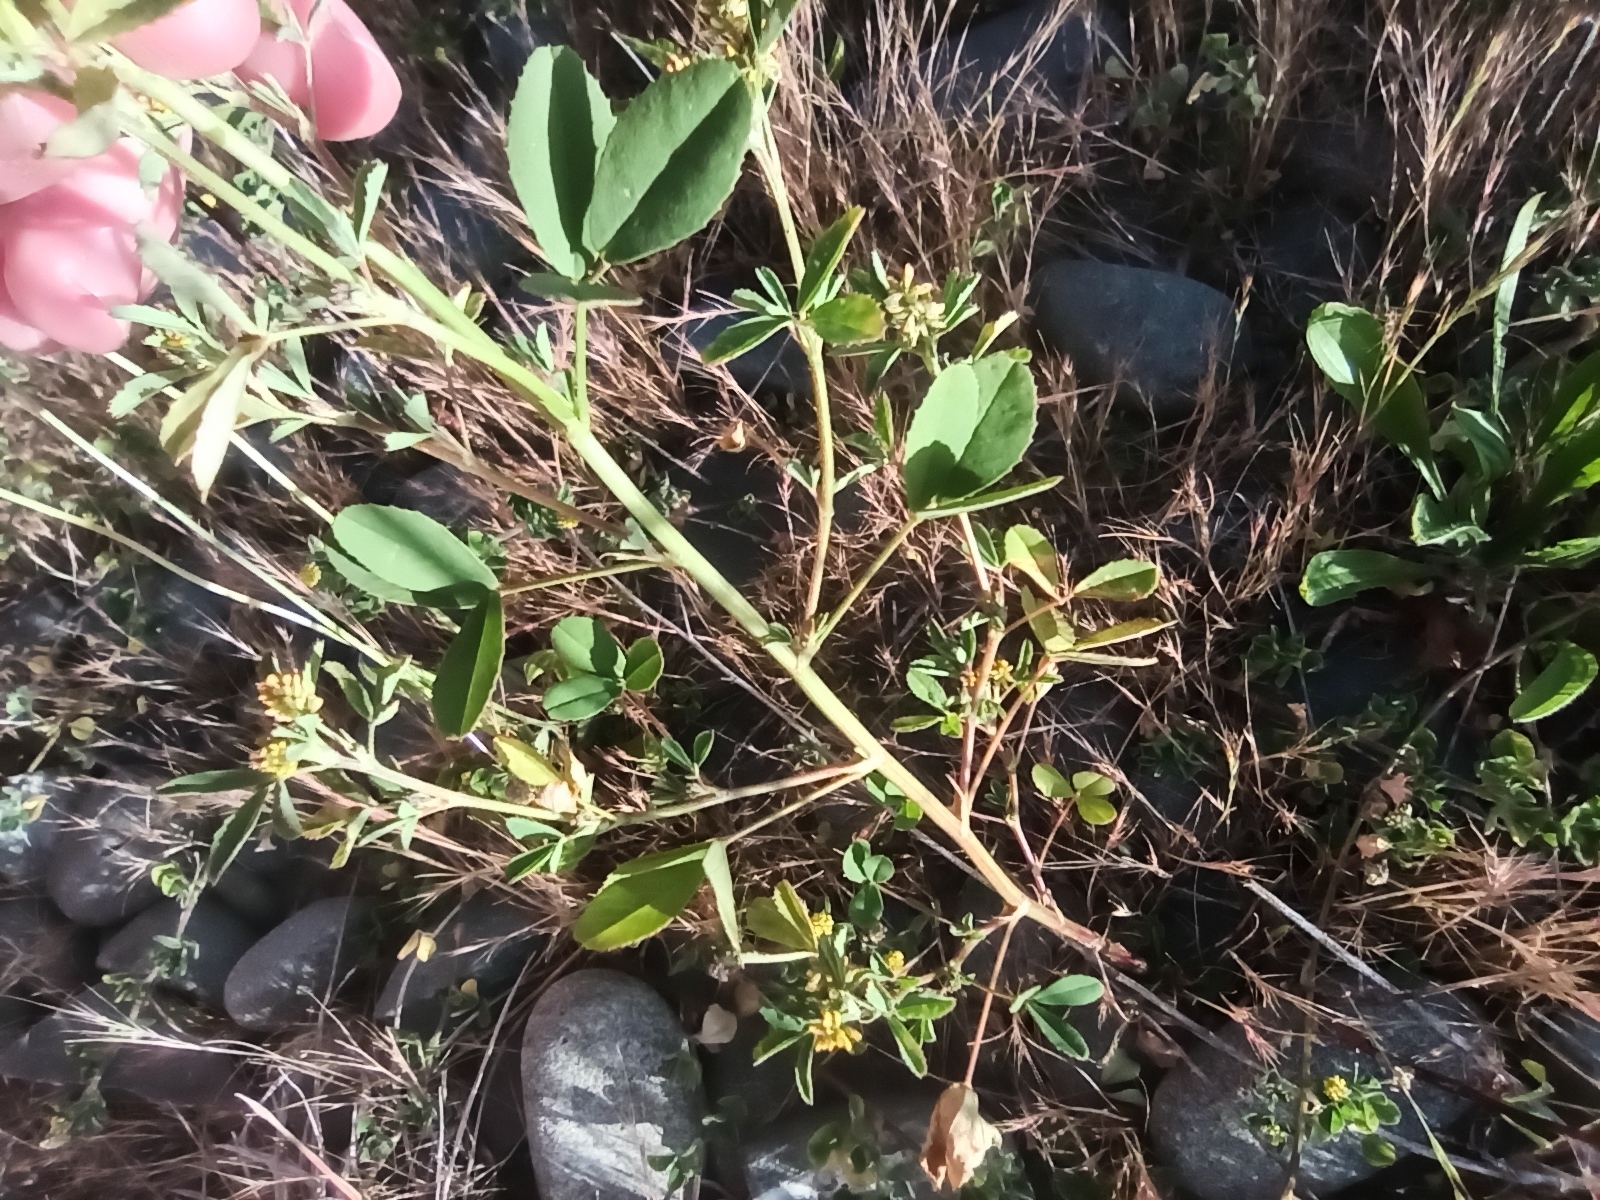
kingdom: Plantae
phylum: Tracheophyta
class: Magnoliopsida
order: Fabales
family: Fabaceae
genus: Melilotus
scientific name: Melilotus indicus
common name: Small melilot
